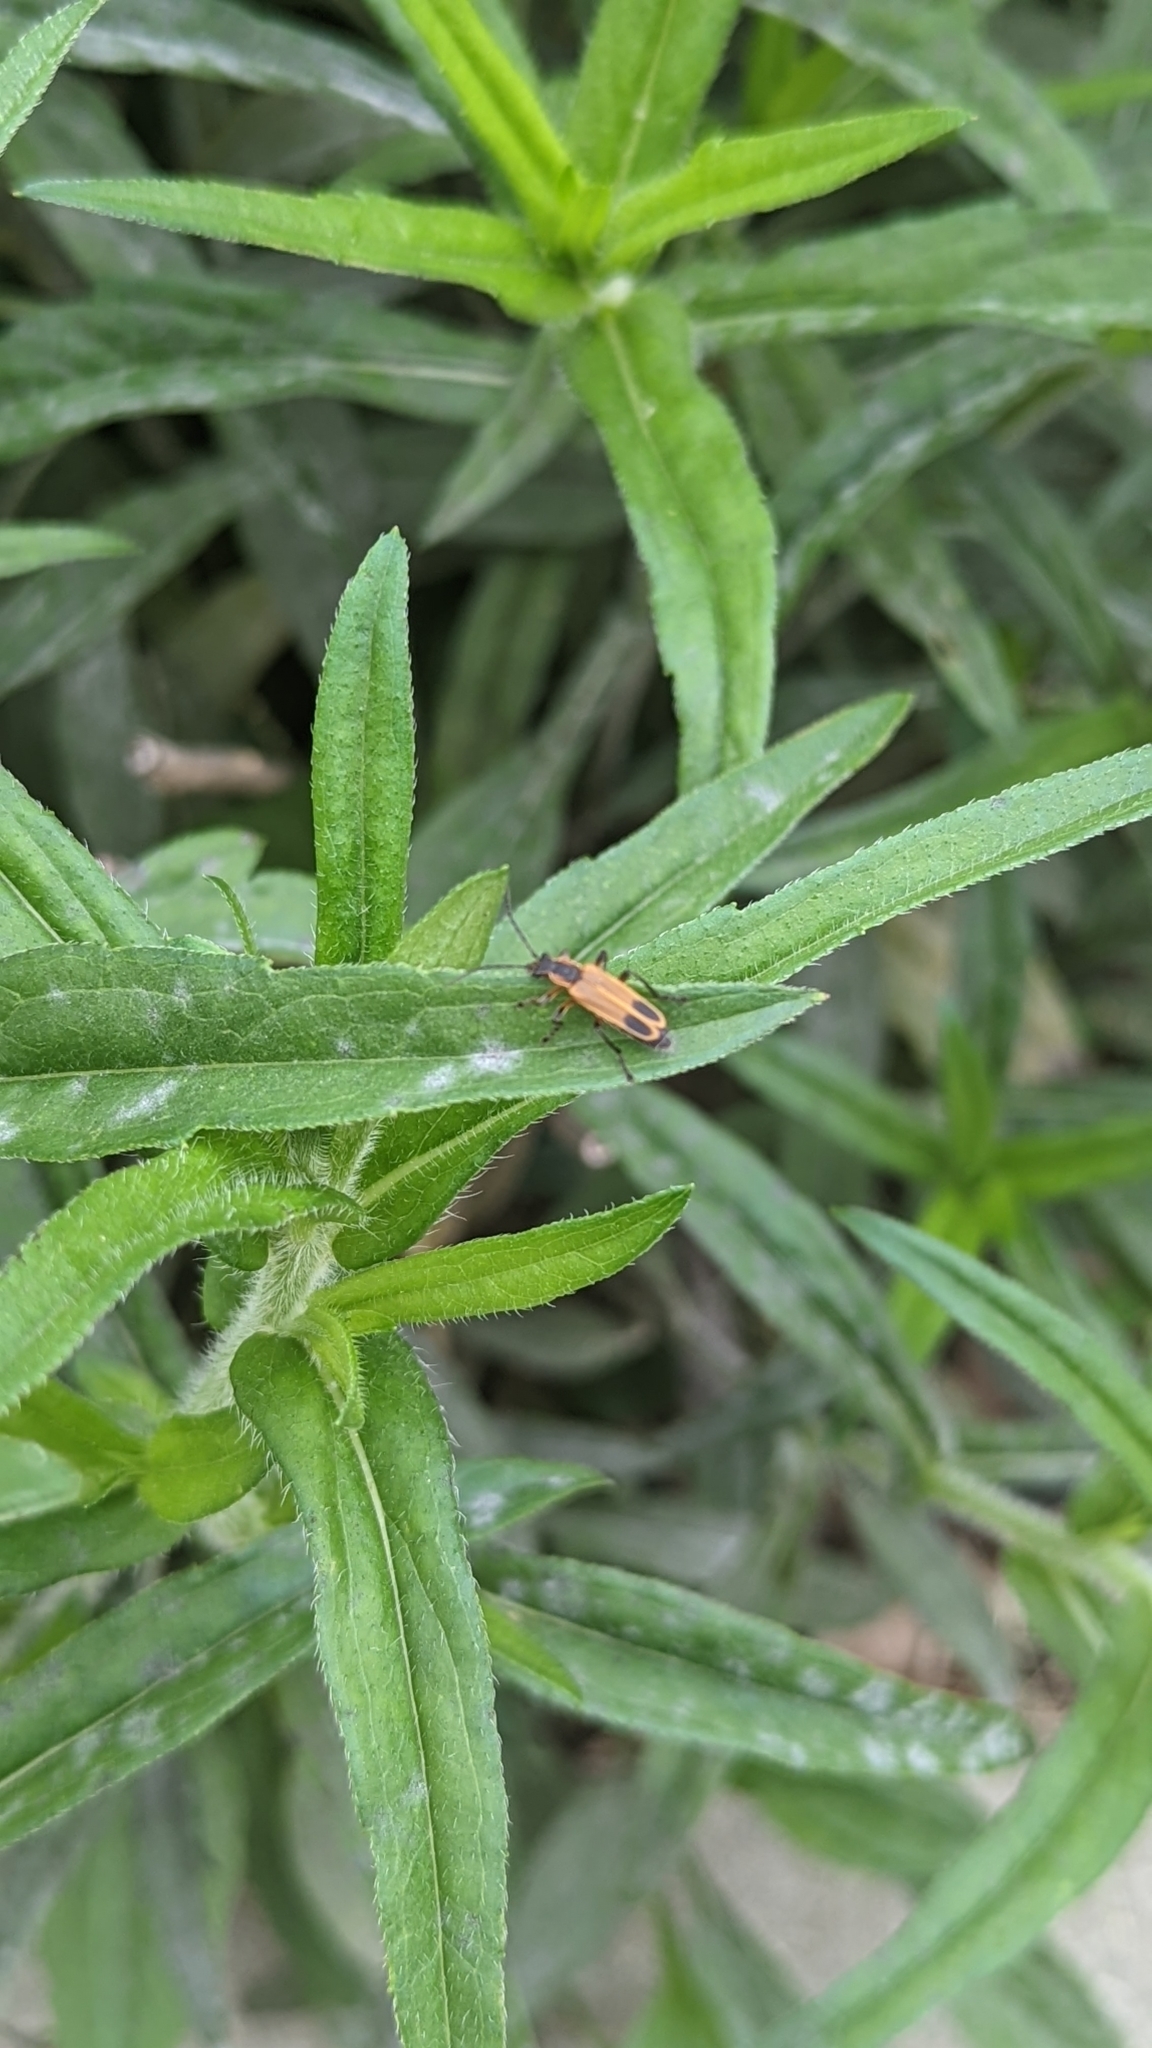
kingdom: Animalia
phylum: Arthropoda
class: Insecta
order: Coleoptera
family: Cantharidae
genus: Chauliognathus
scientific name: Chauliognathus marginatus
